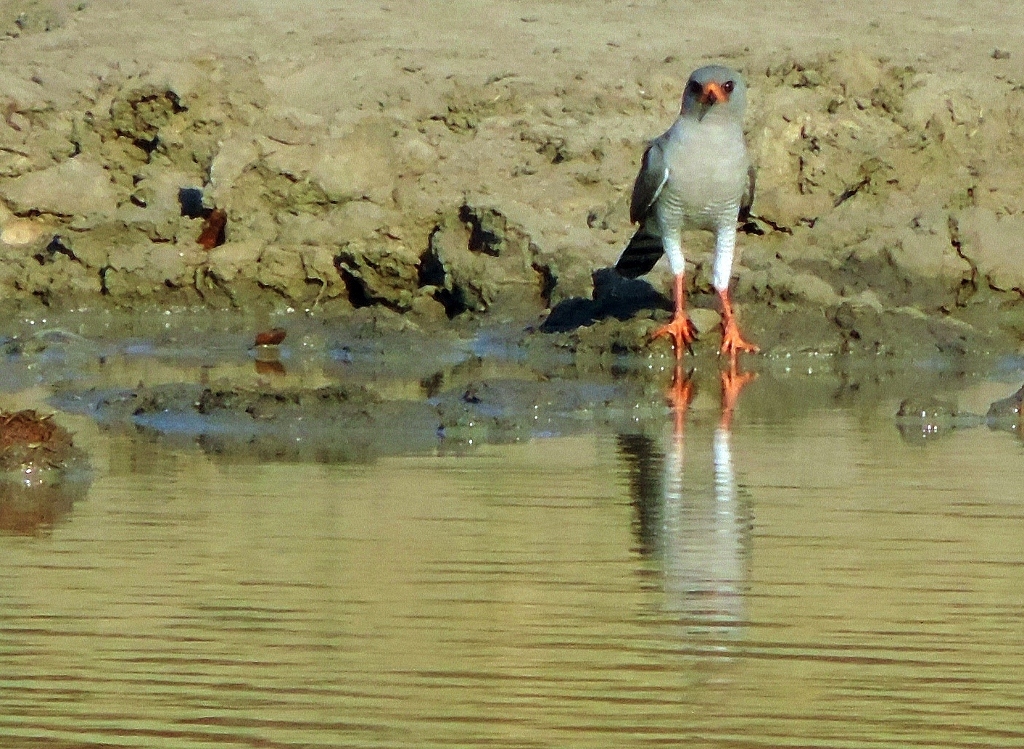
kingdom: Animalia
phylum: Chordata
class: Aves
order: Accipitriformes
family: Accipitridae
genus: Micronisus
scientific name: Micronisus gabar
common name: Gabar goshawk
